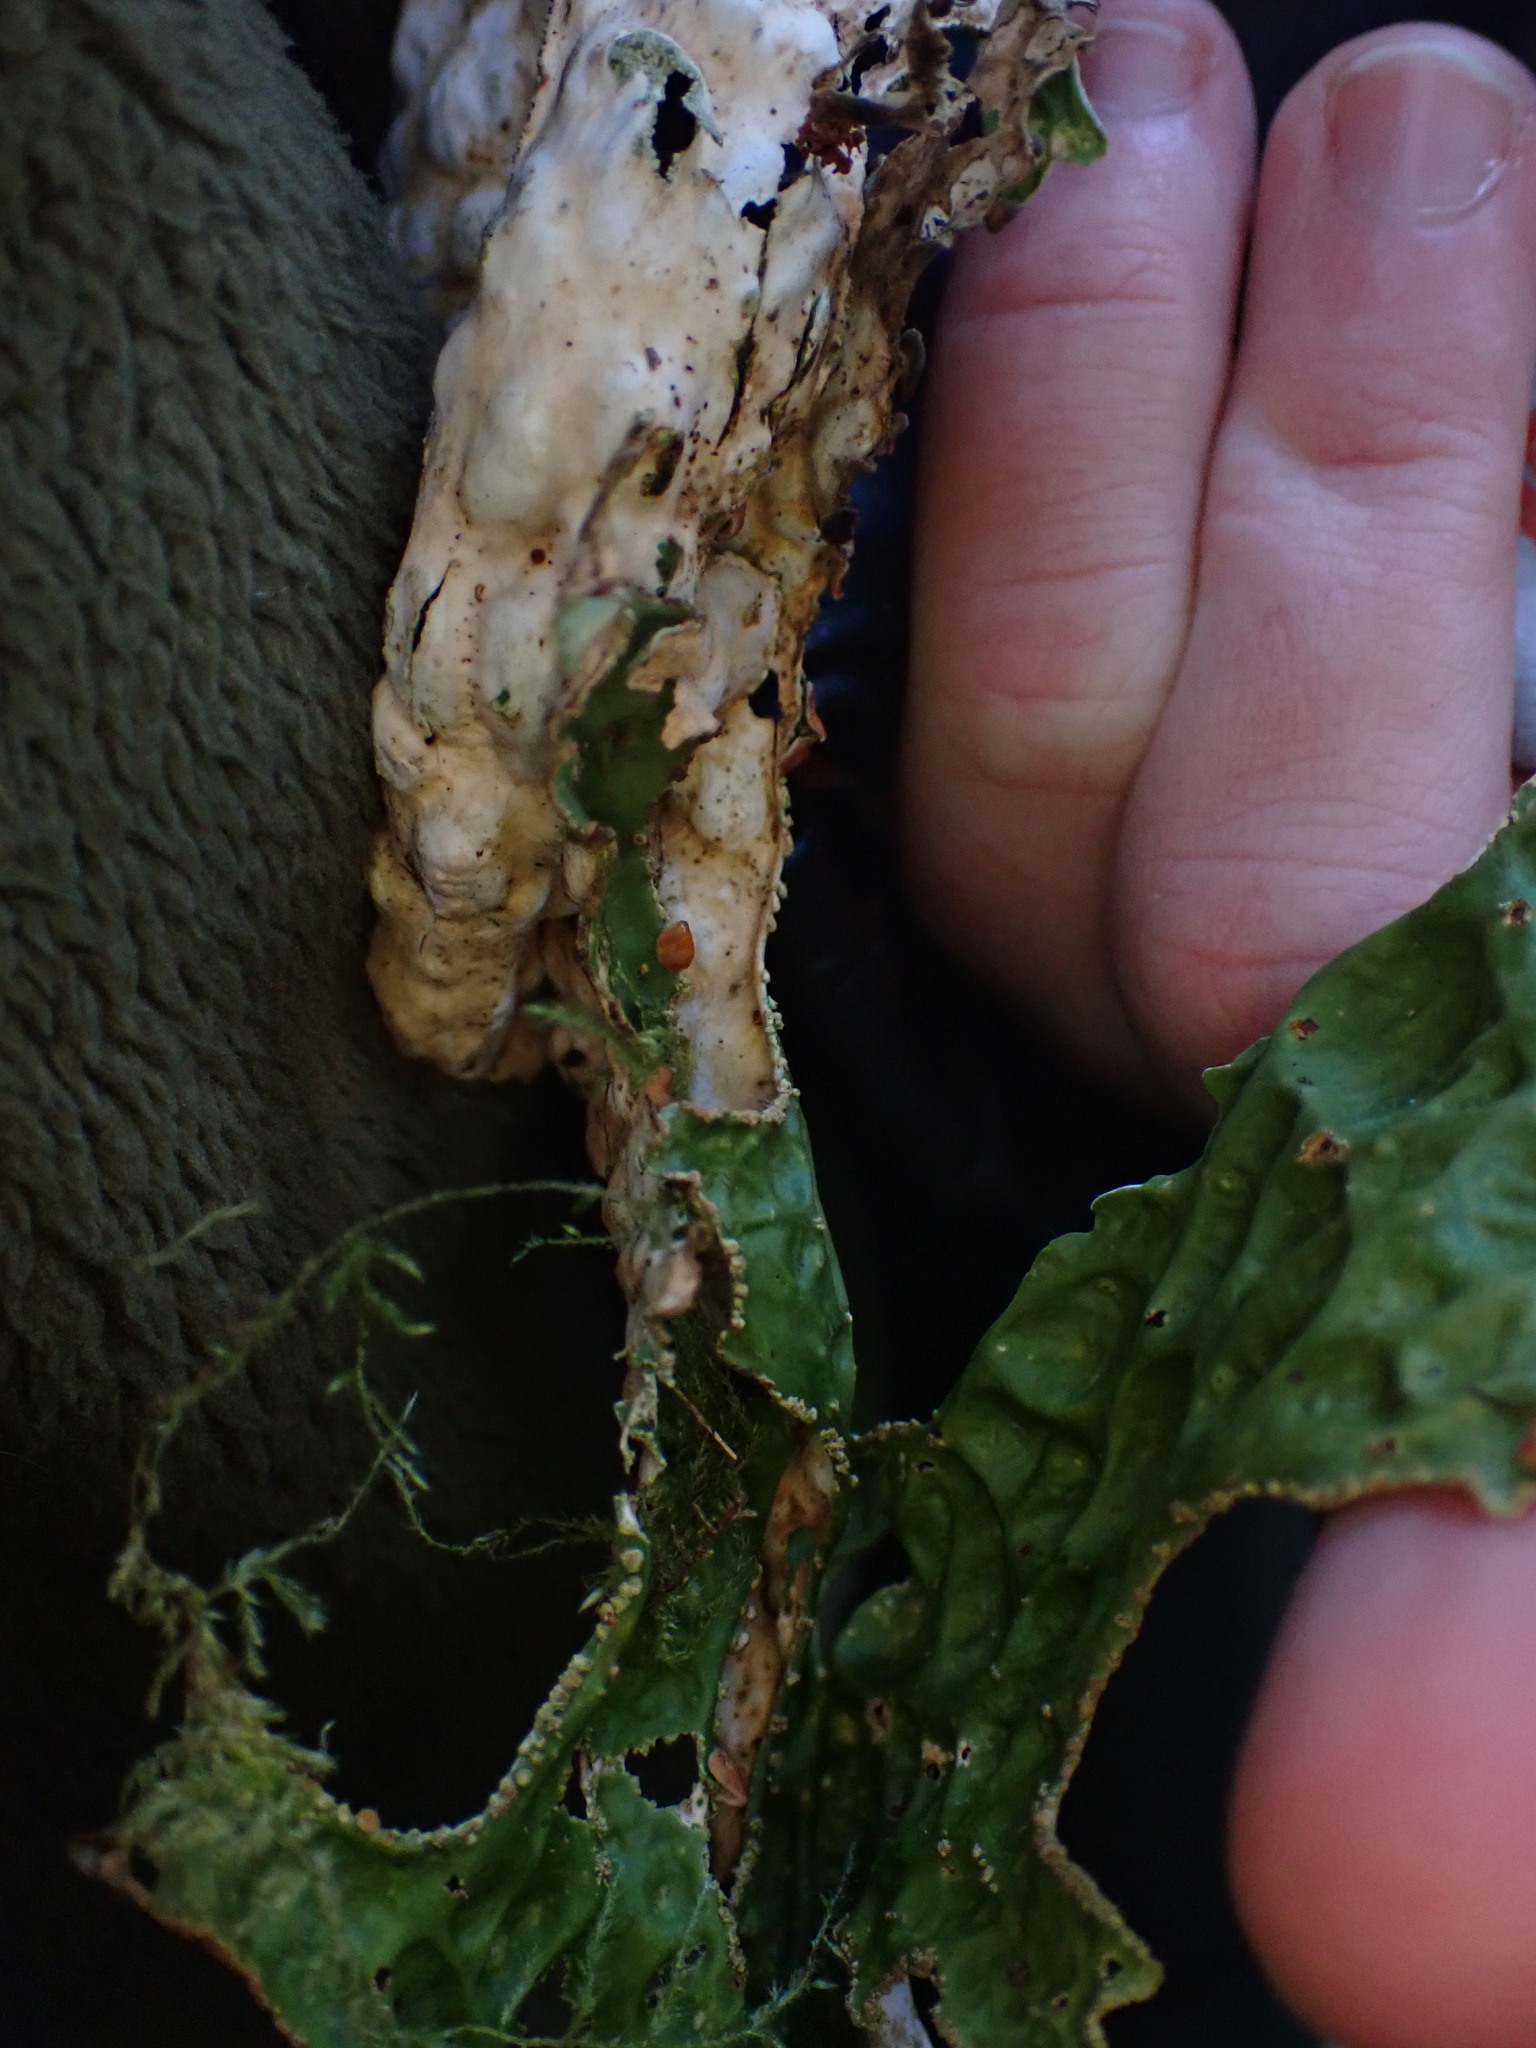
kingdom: Fungi
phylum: Ascomycota
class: Lecanoromycetes
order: Peltigerales
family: Lobariaceae
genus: Lobaria
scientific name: Lobaria pulmonaria
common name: Lungwort
